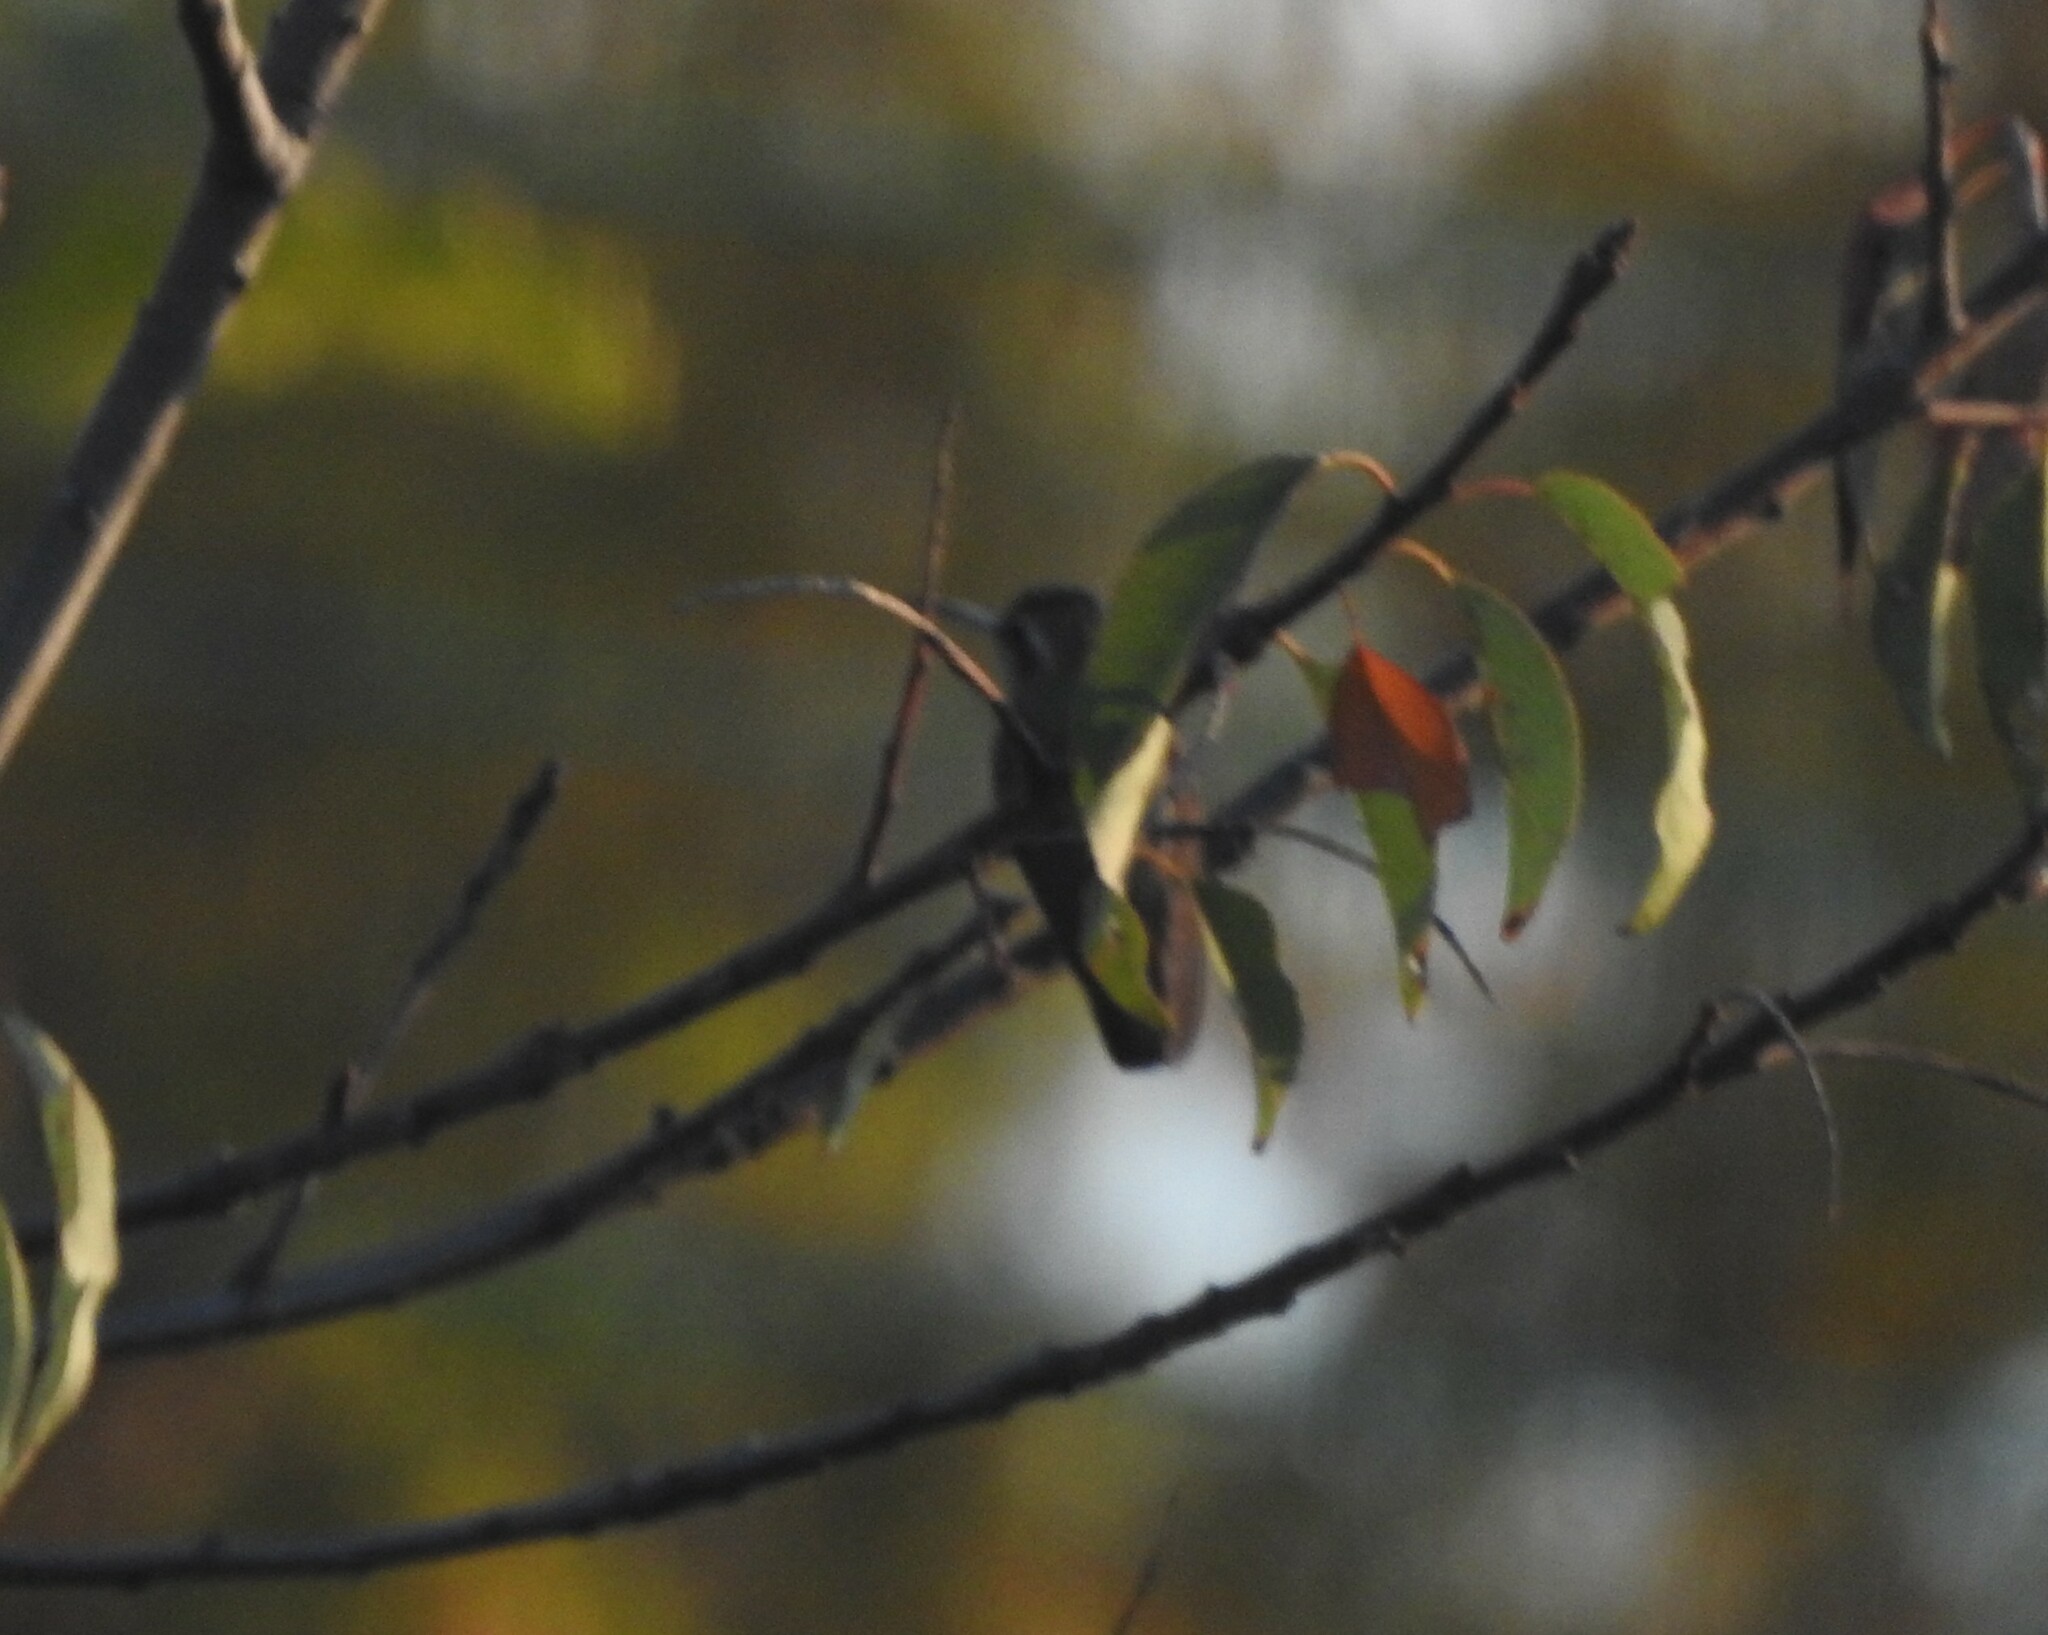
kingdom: Animalia
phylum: Chordata
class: Aves
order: Apodiformes
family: Trochilidae
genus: Lampornis
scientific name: Lampornis clemenciae
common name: Blue-throated mountaingem
